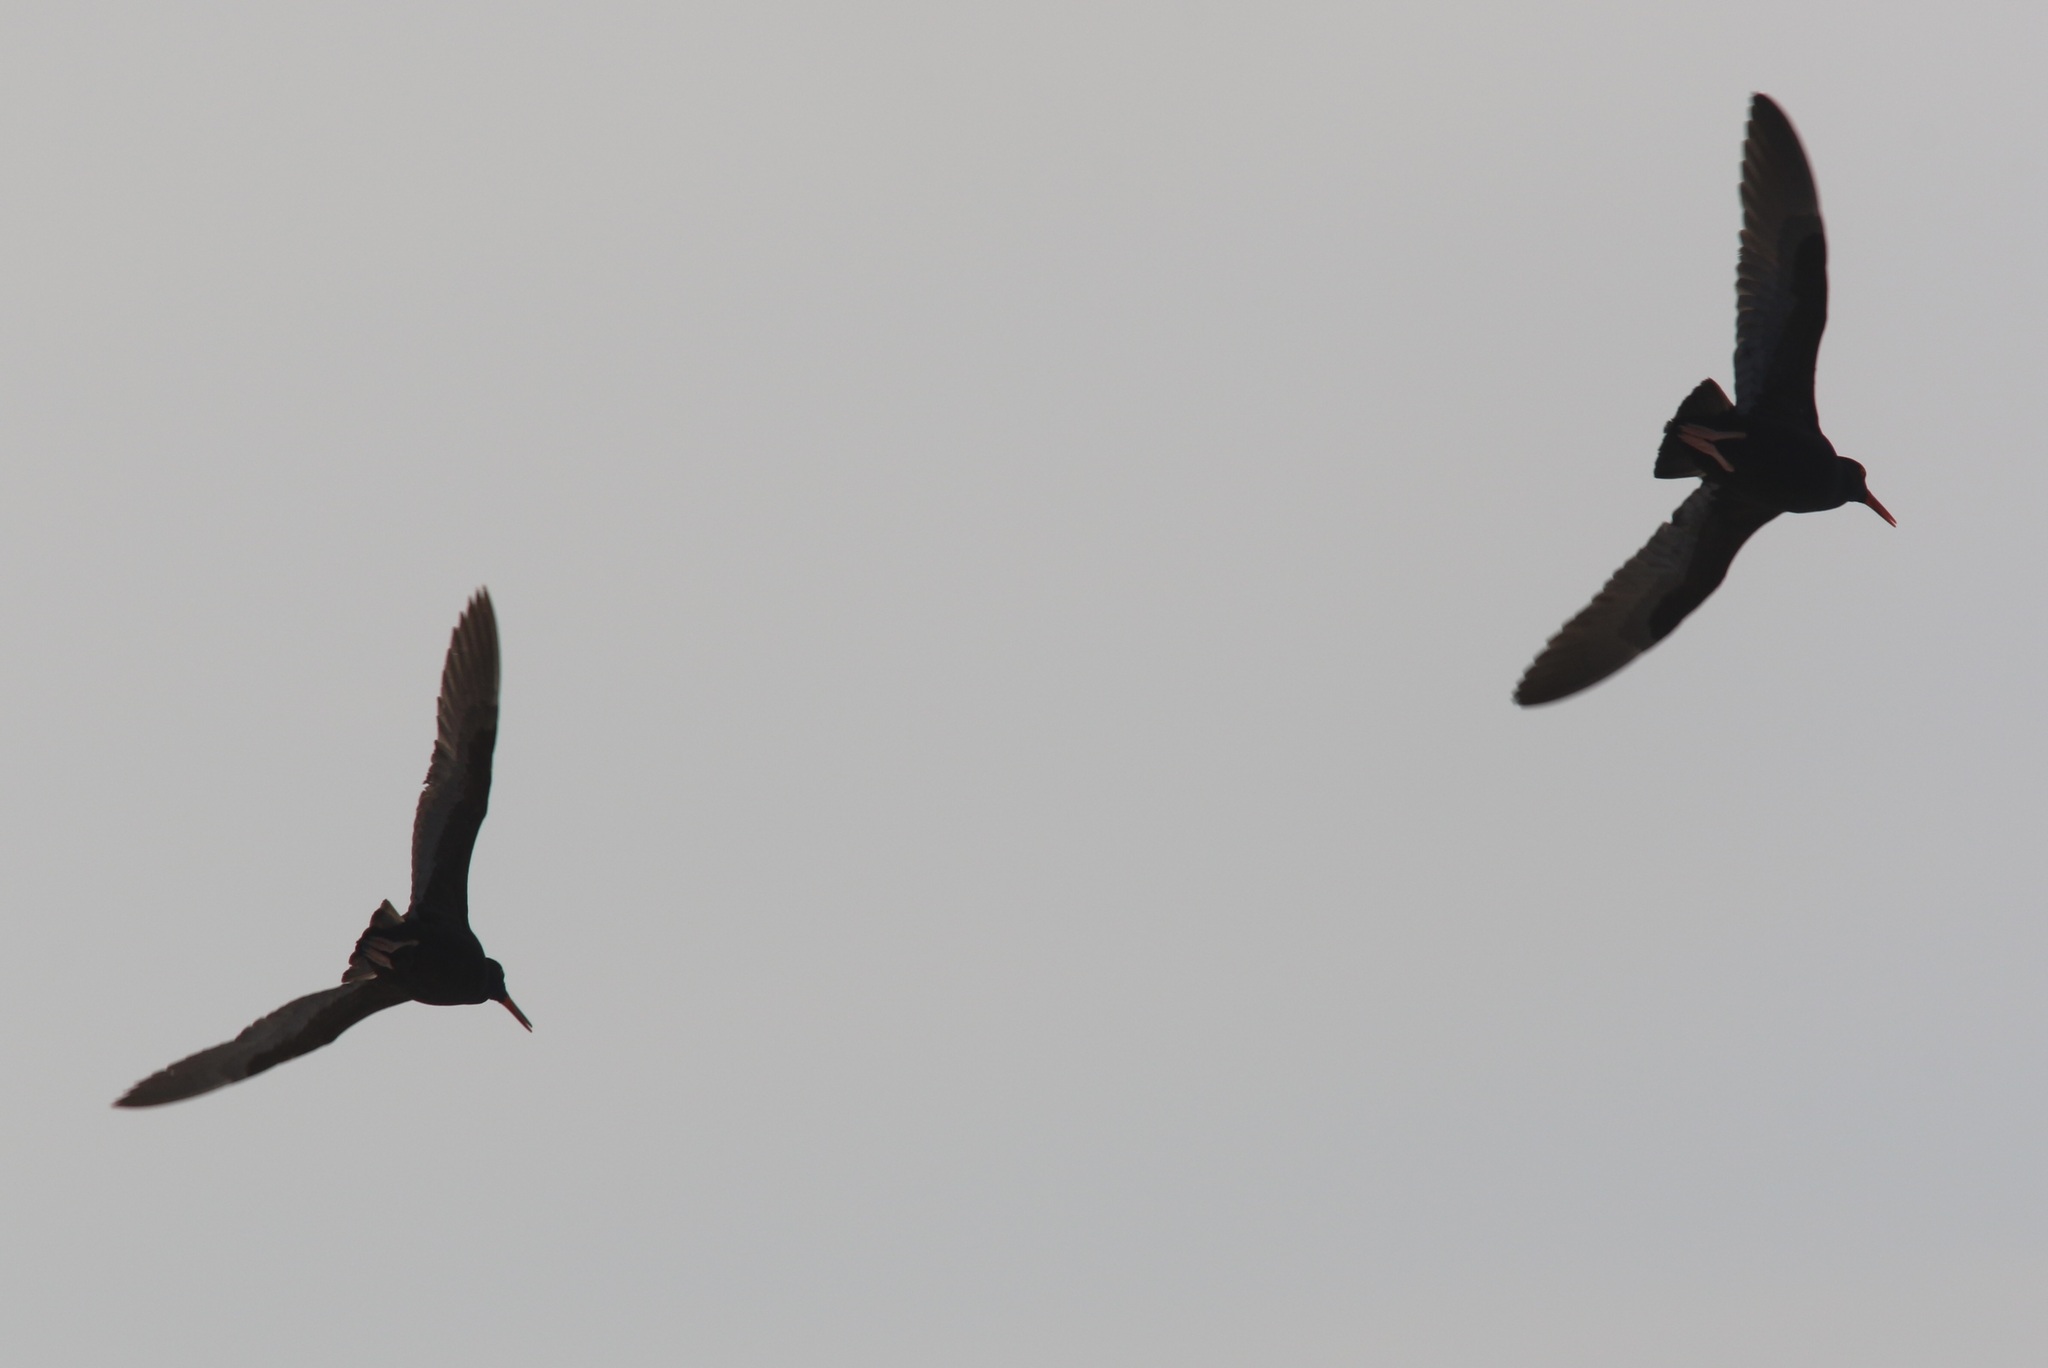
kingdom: Animalia
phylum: Chordata
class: Aves
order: Charadriiformes
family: Haematopodidae
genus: Haematopus
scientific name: Haematopus bachmani
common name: Black oystercatcher
